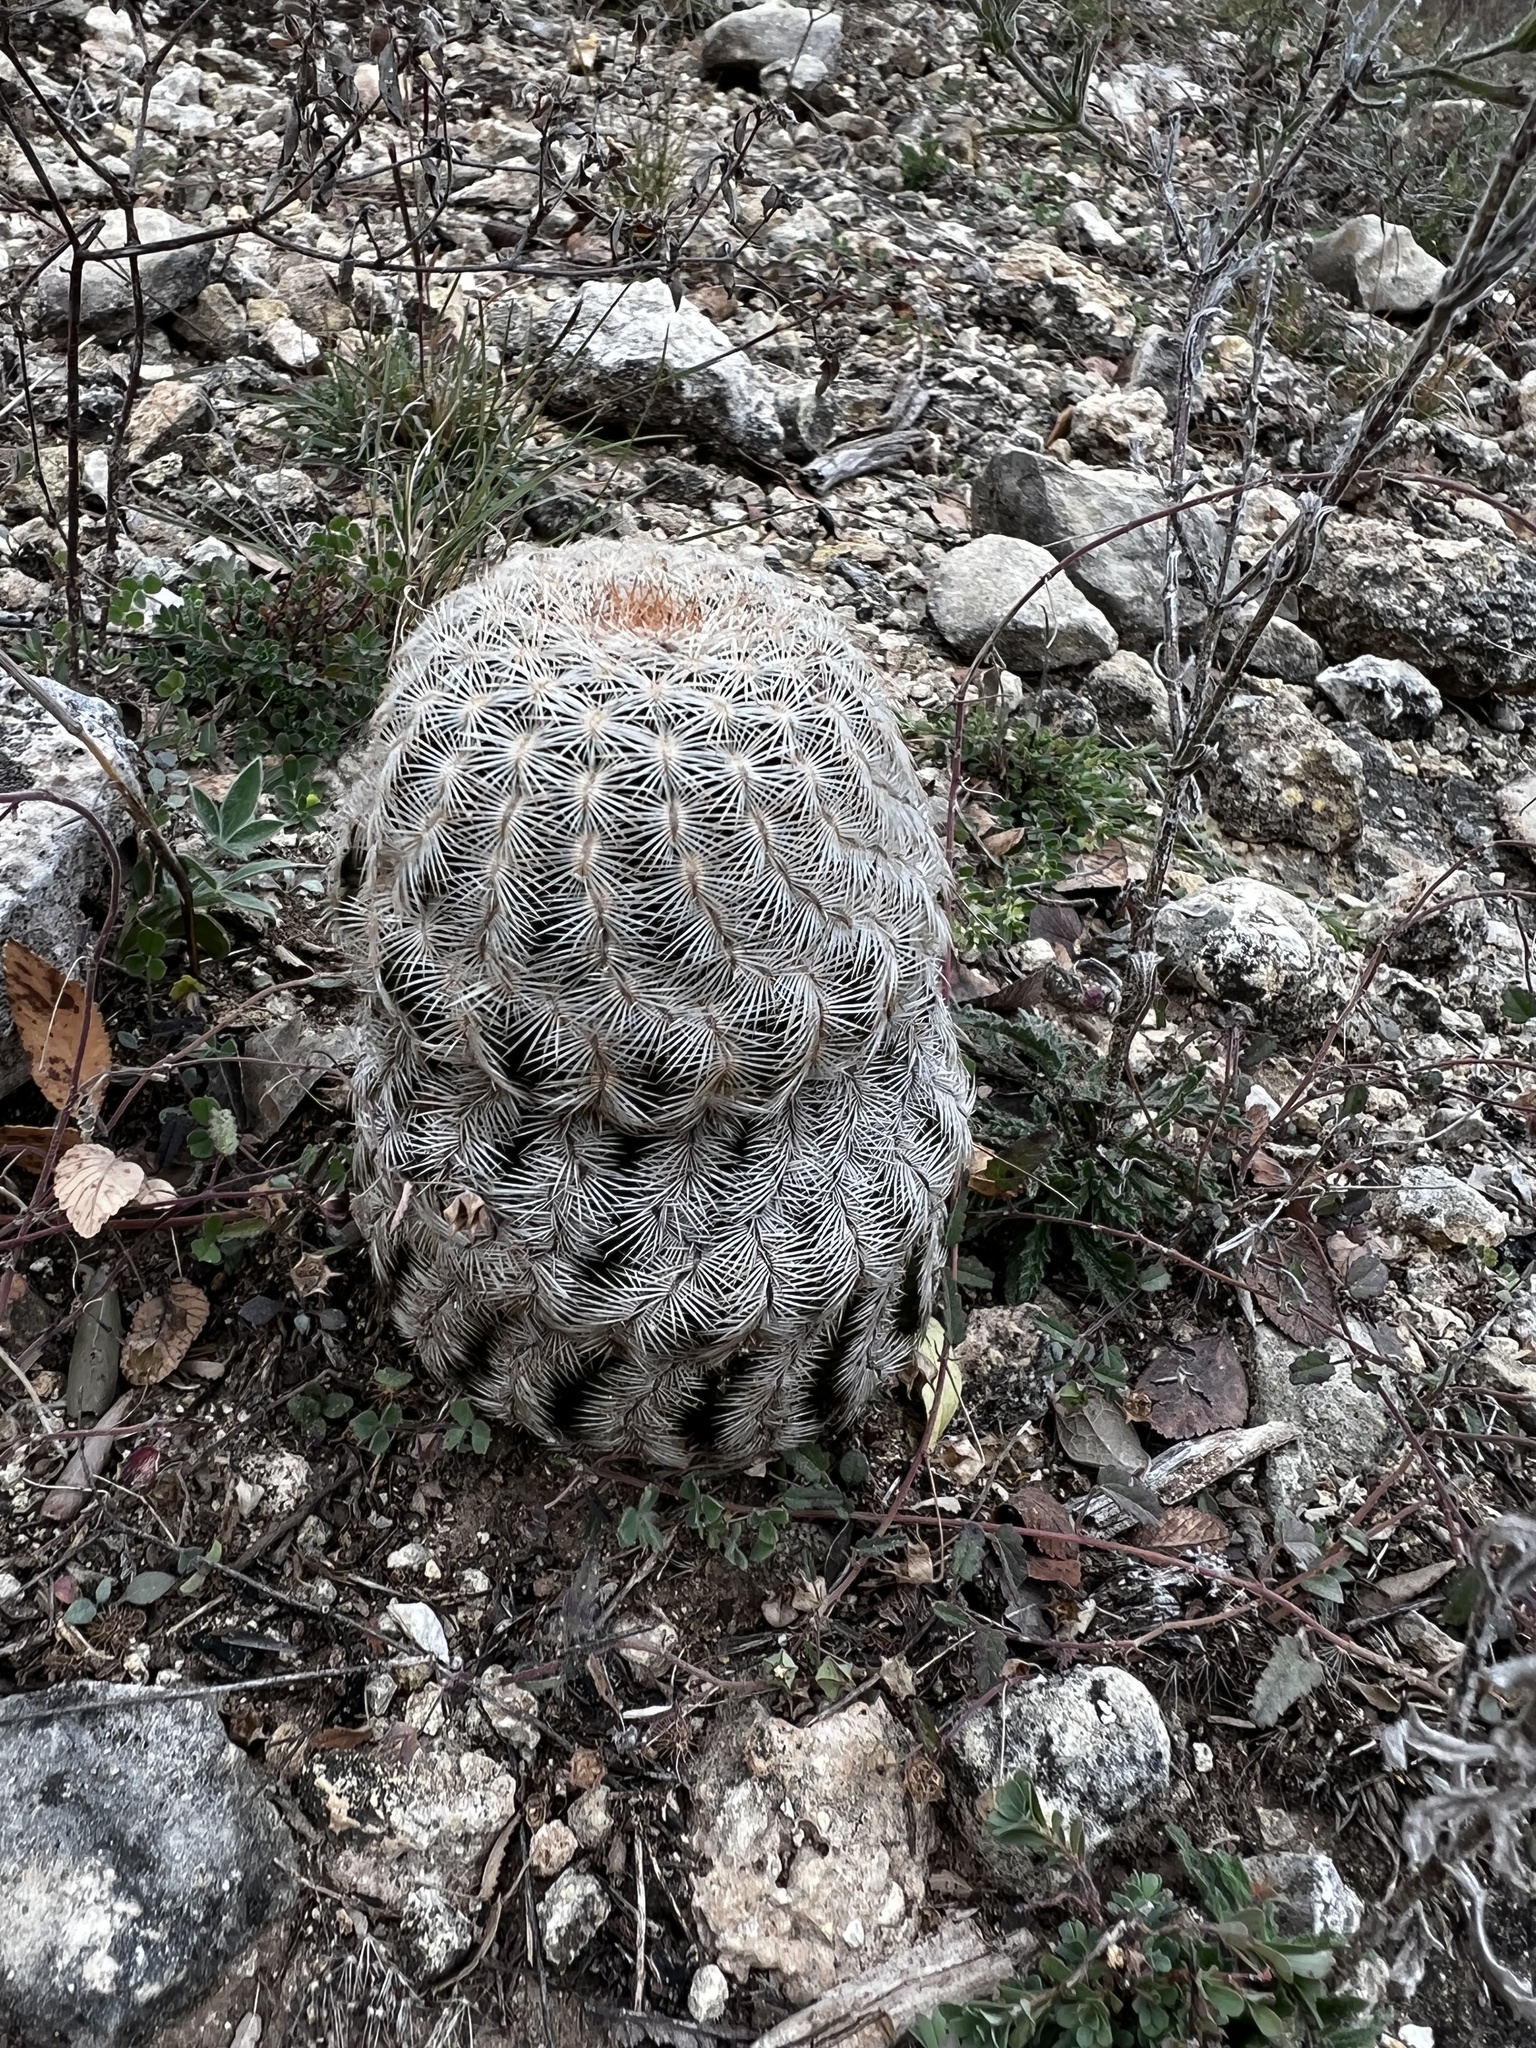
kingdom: Plantae
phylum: Tracheophyta
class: Magnoliopsida
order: Caryophyllales
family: Cactaceae
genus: Echinocereus
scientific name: Echinocereus reichenbachii
